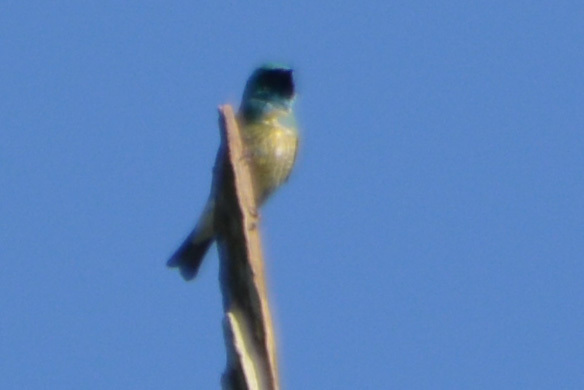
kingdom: Animalia
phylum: Chordata
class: Aves
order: Passeriformes
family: Thraupidae
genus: Tersina
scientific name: Tersina viridis
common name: Swallow tanager
